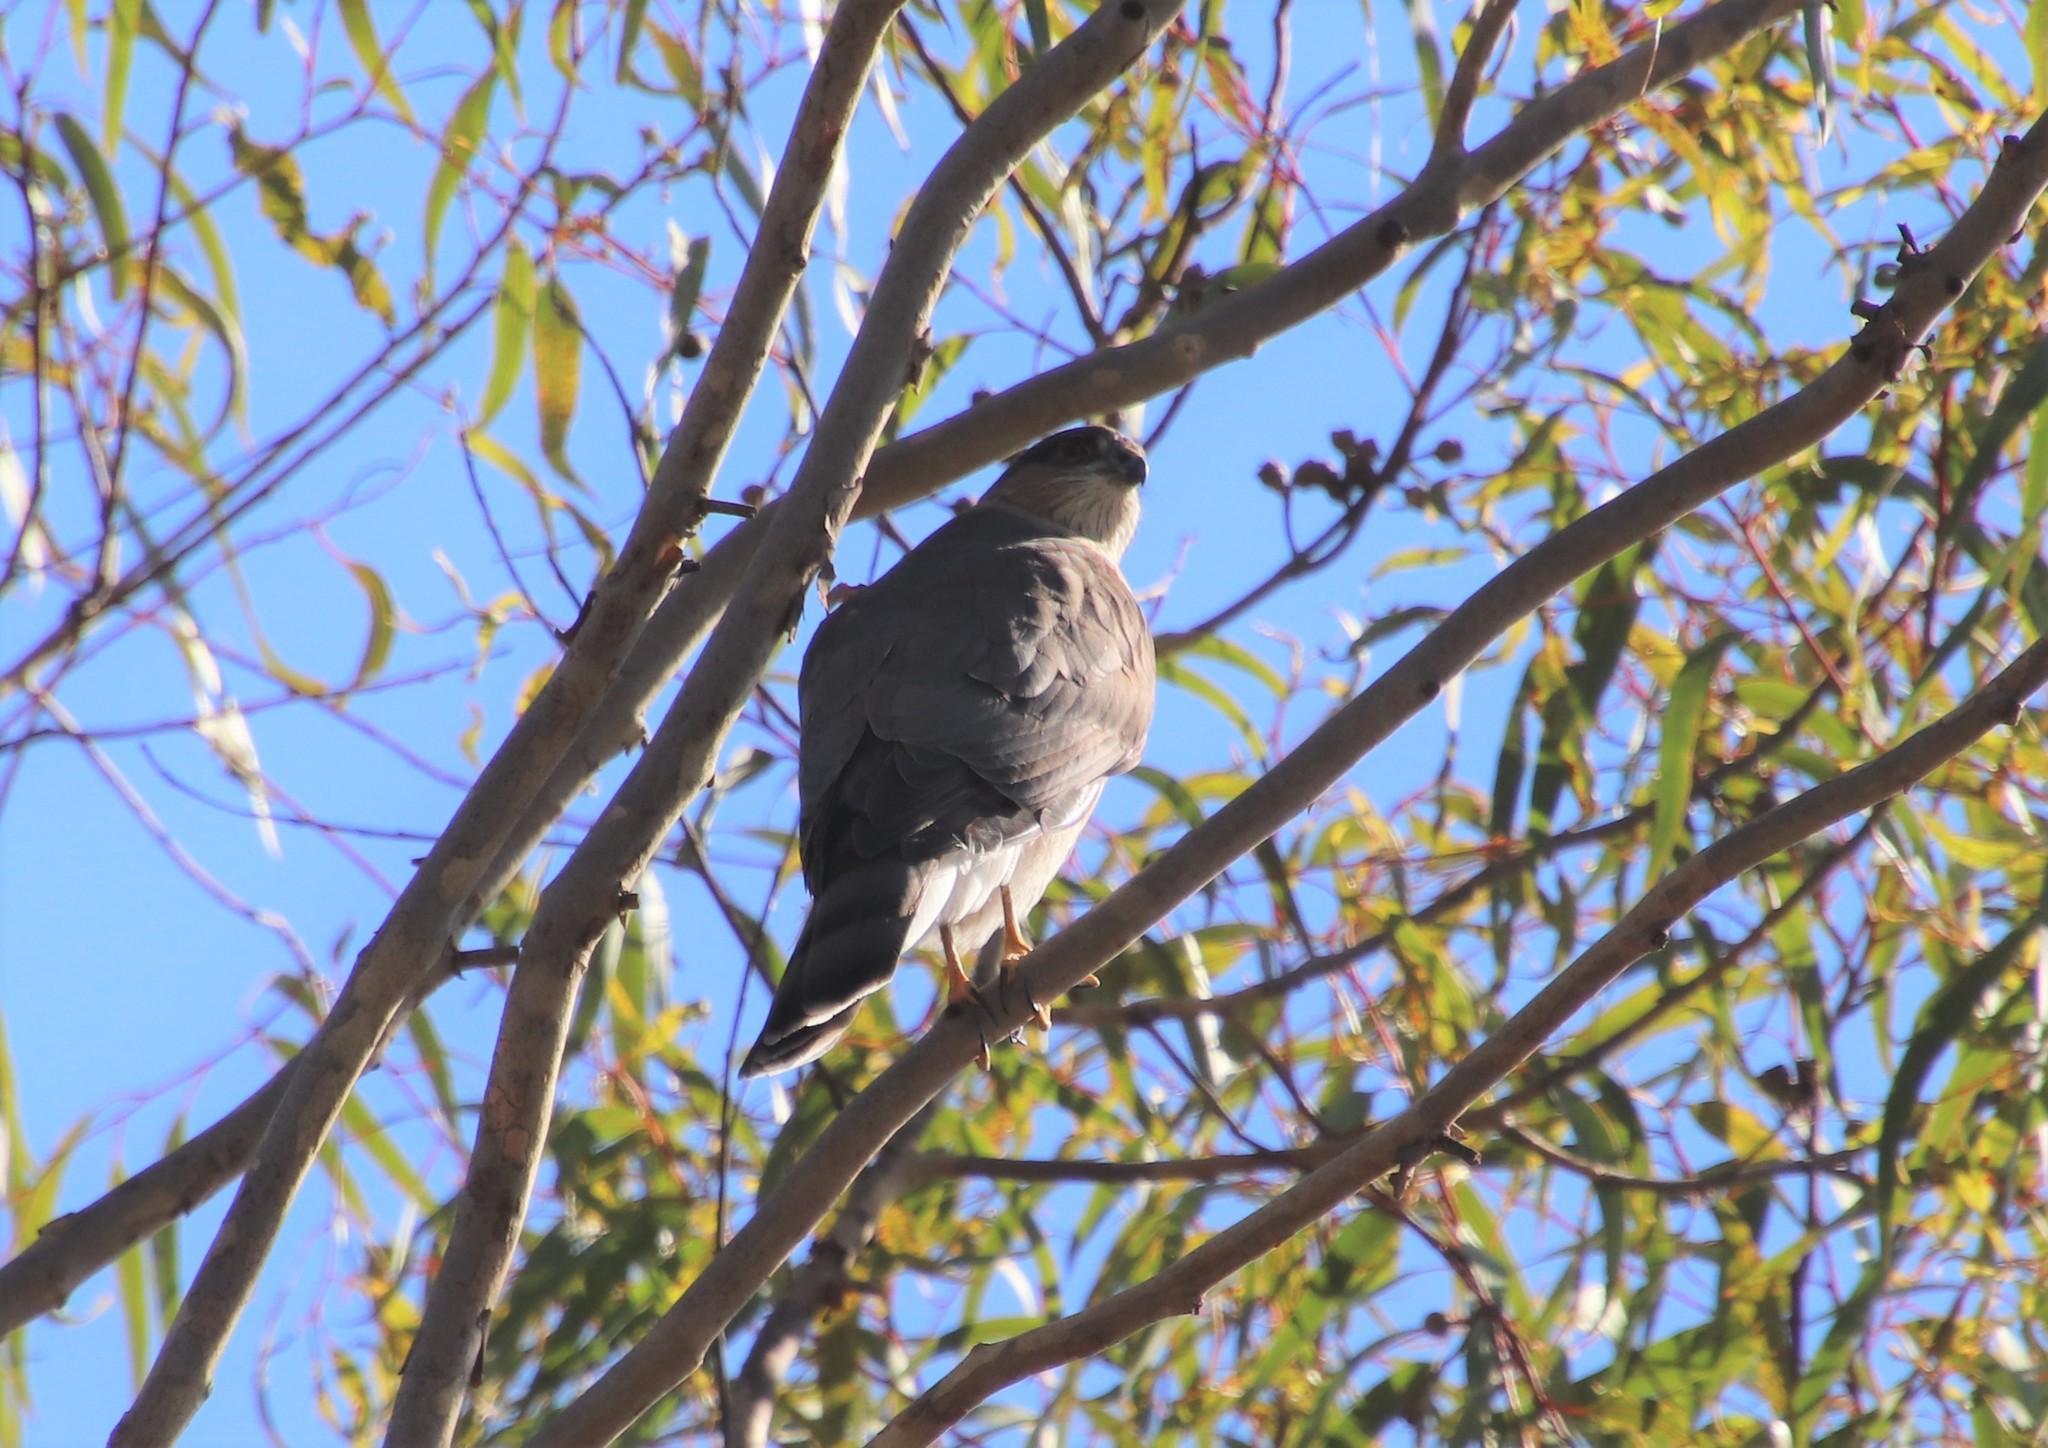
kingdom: Animalia
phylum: Chordata
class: Aves
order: Accipitriformes
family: Accipitridae
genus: Accipiter
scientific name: Accipiter cooperii
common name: Cooper's hawk
